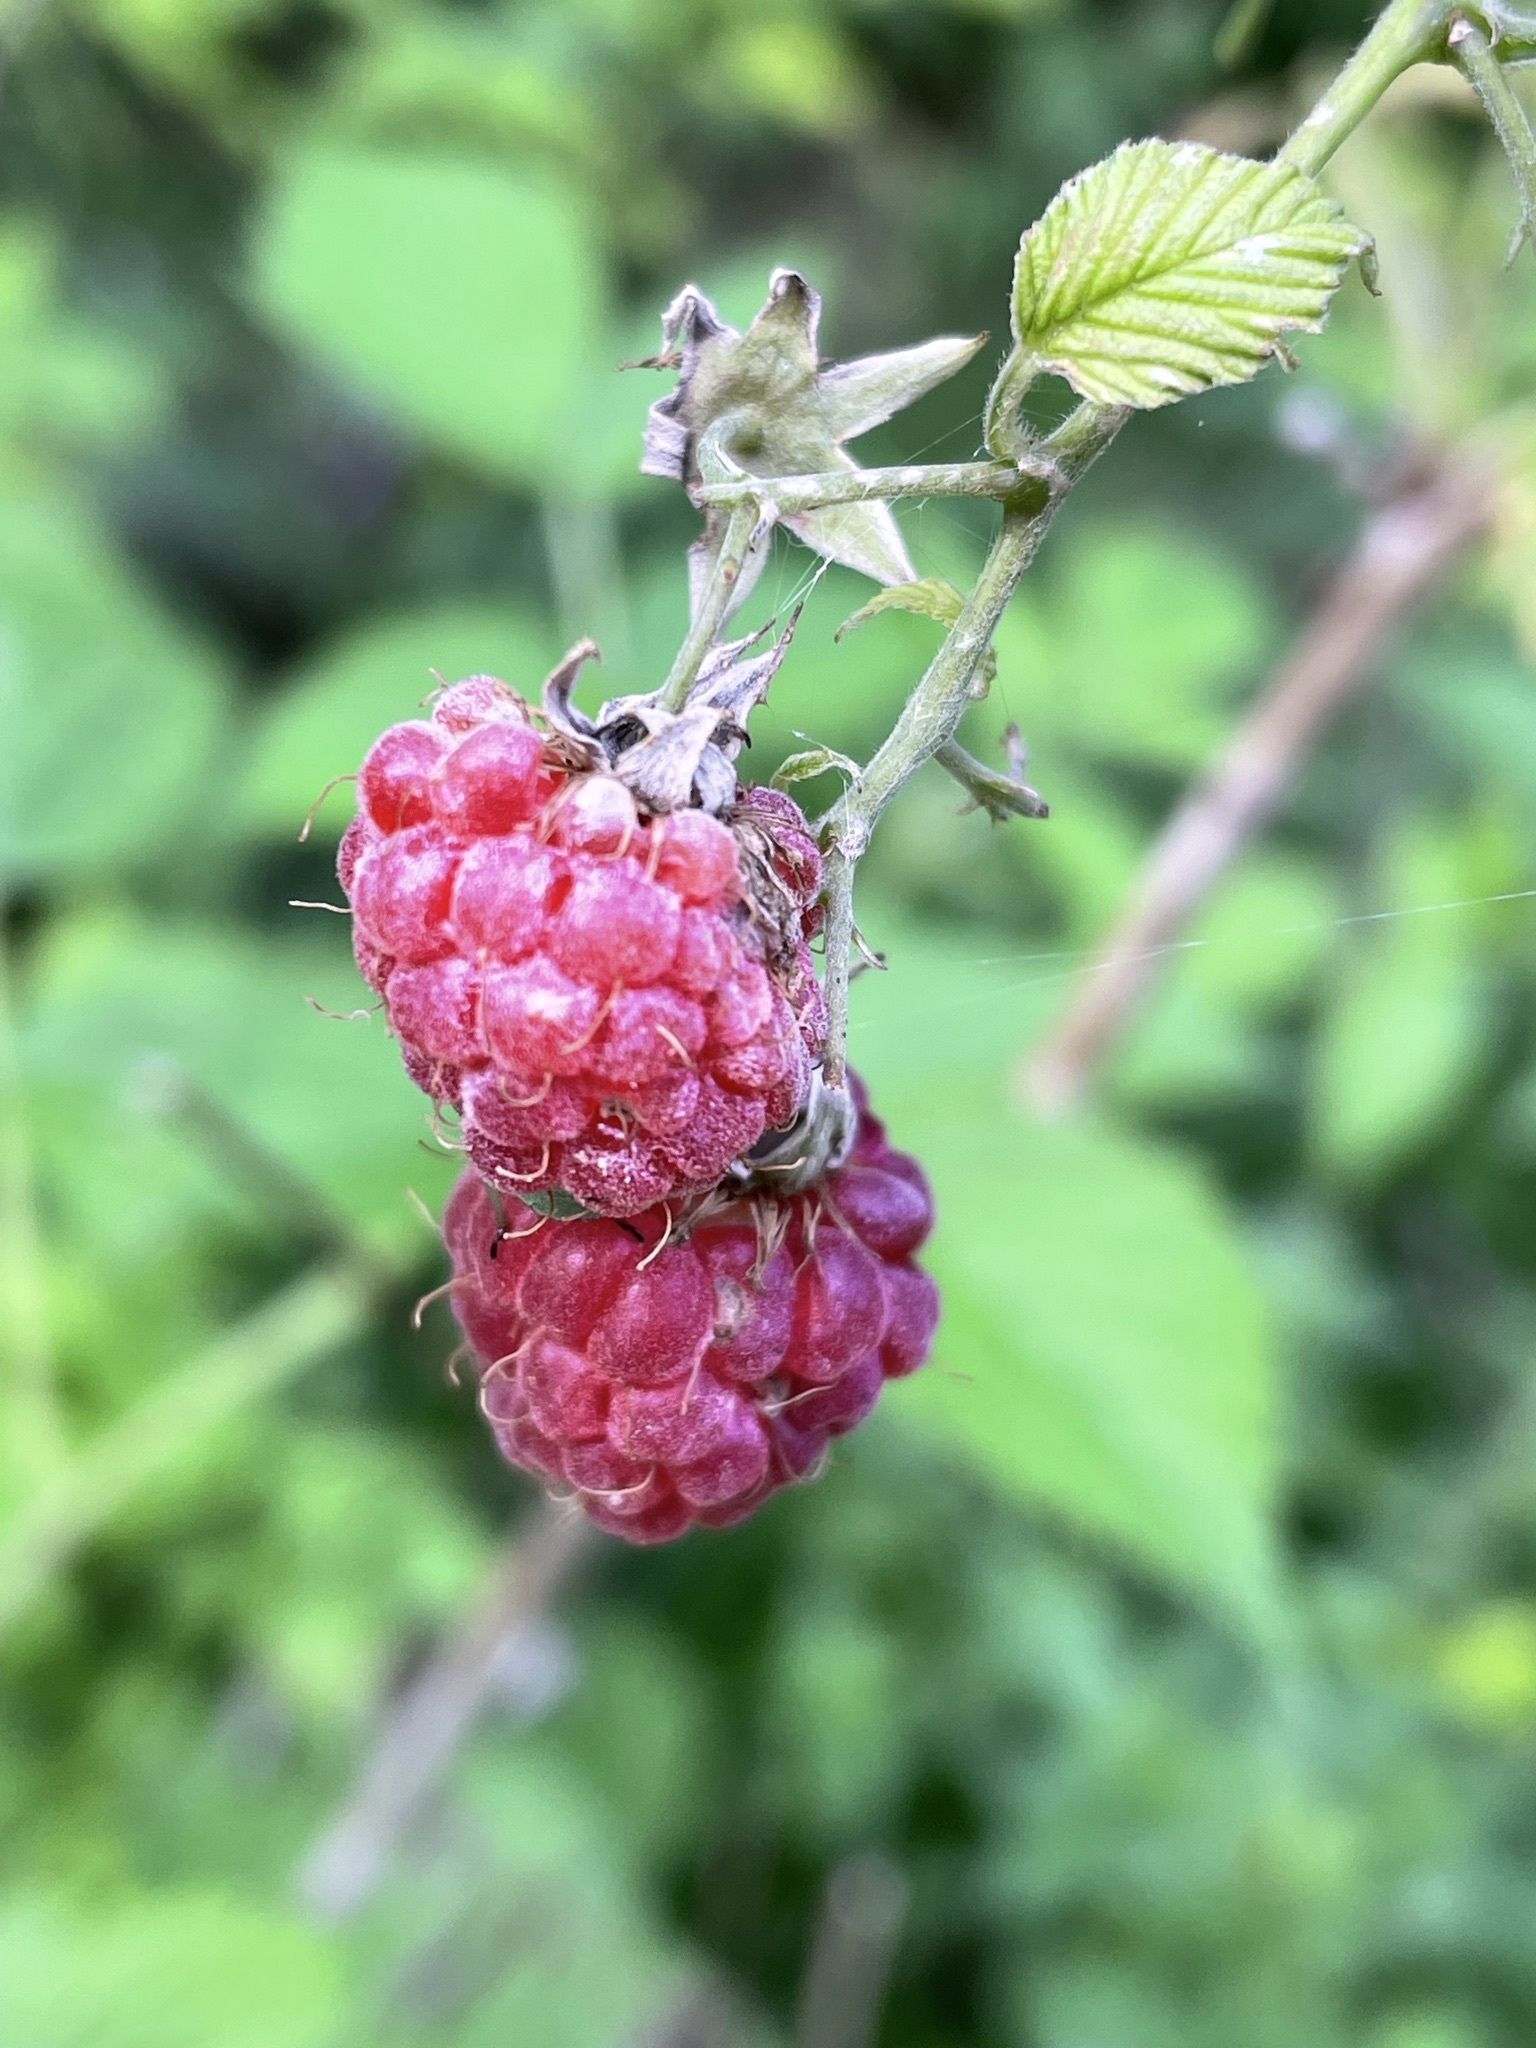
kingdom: Plantae
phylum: Tracheophyta
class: Magnoliopsida
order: Rosales
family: Rosaceae
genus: Rubus
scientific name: Rubus idaeus
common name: Raspberry
